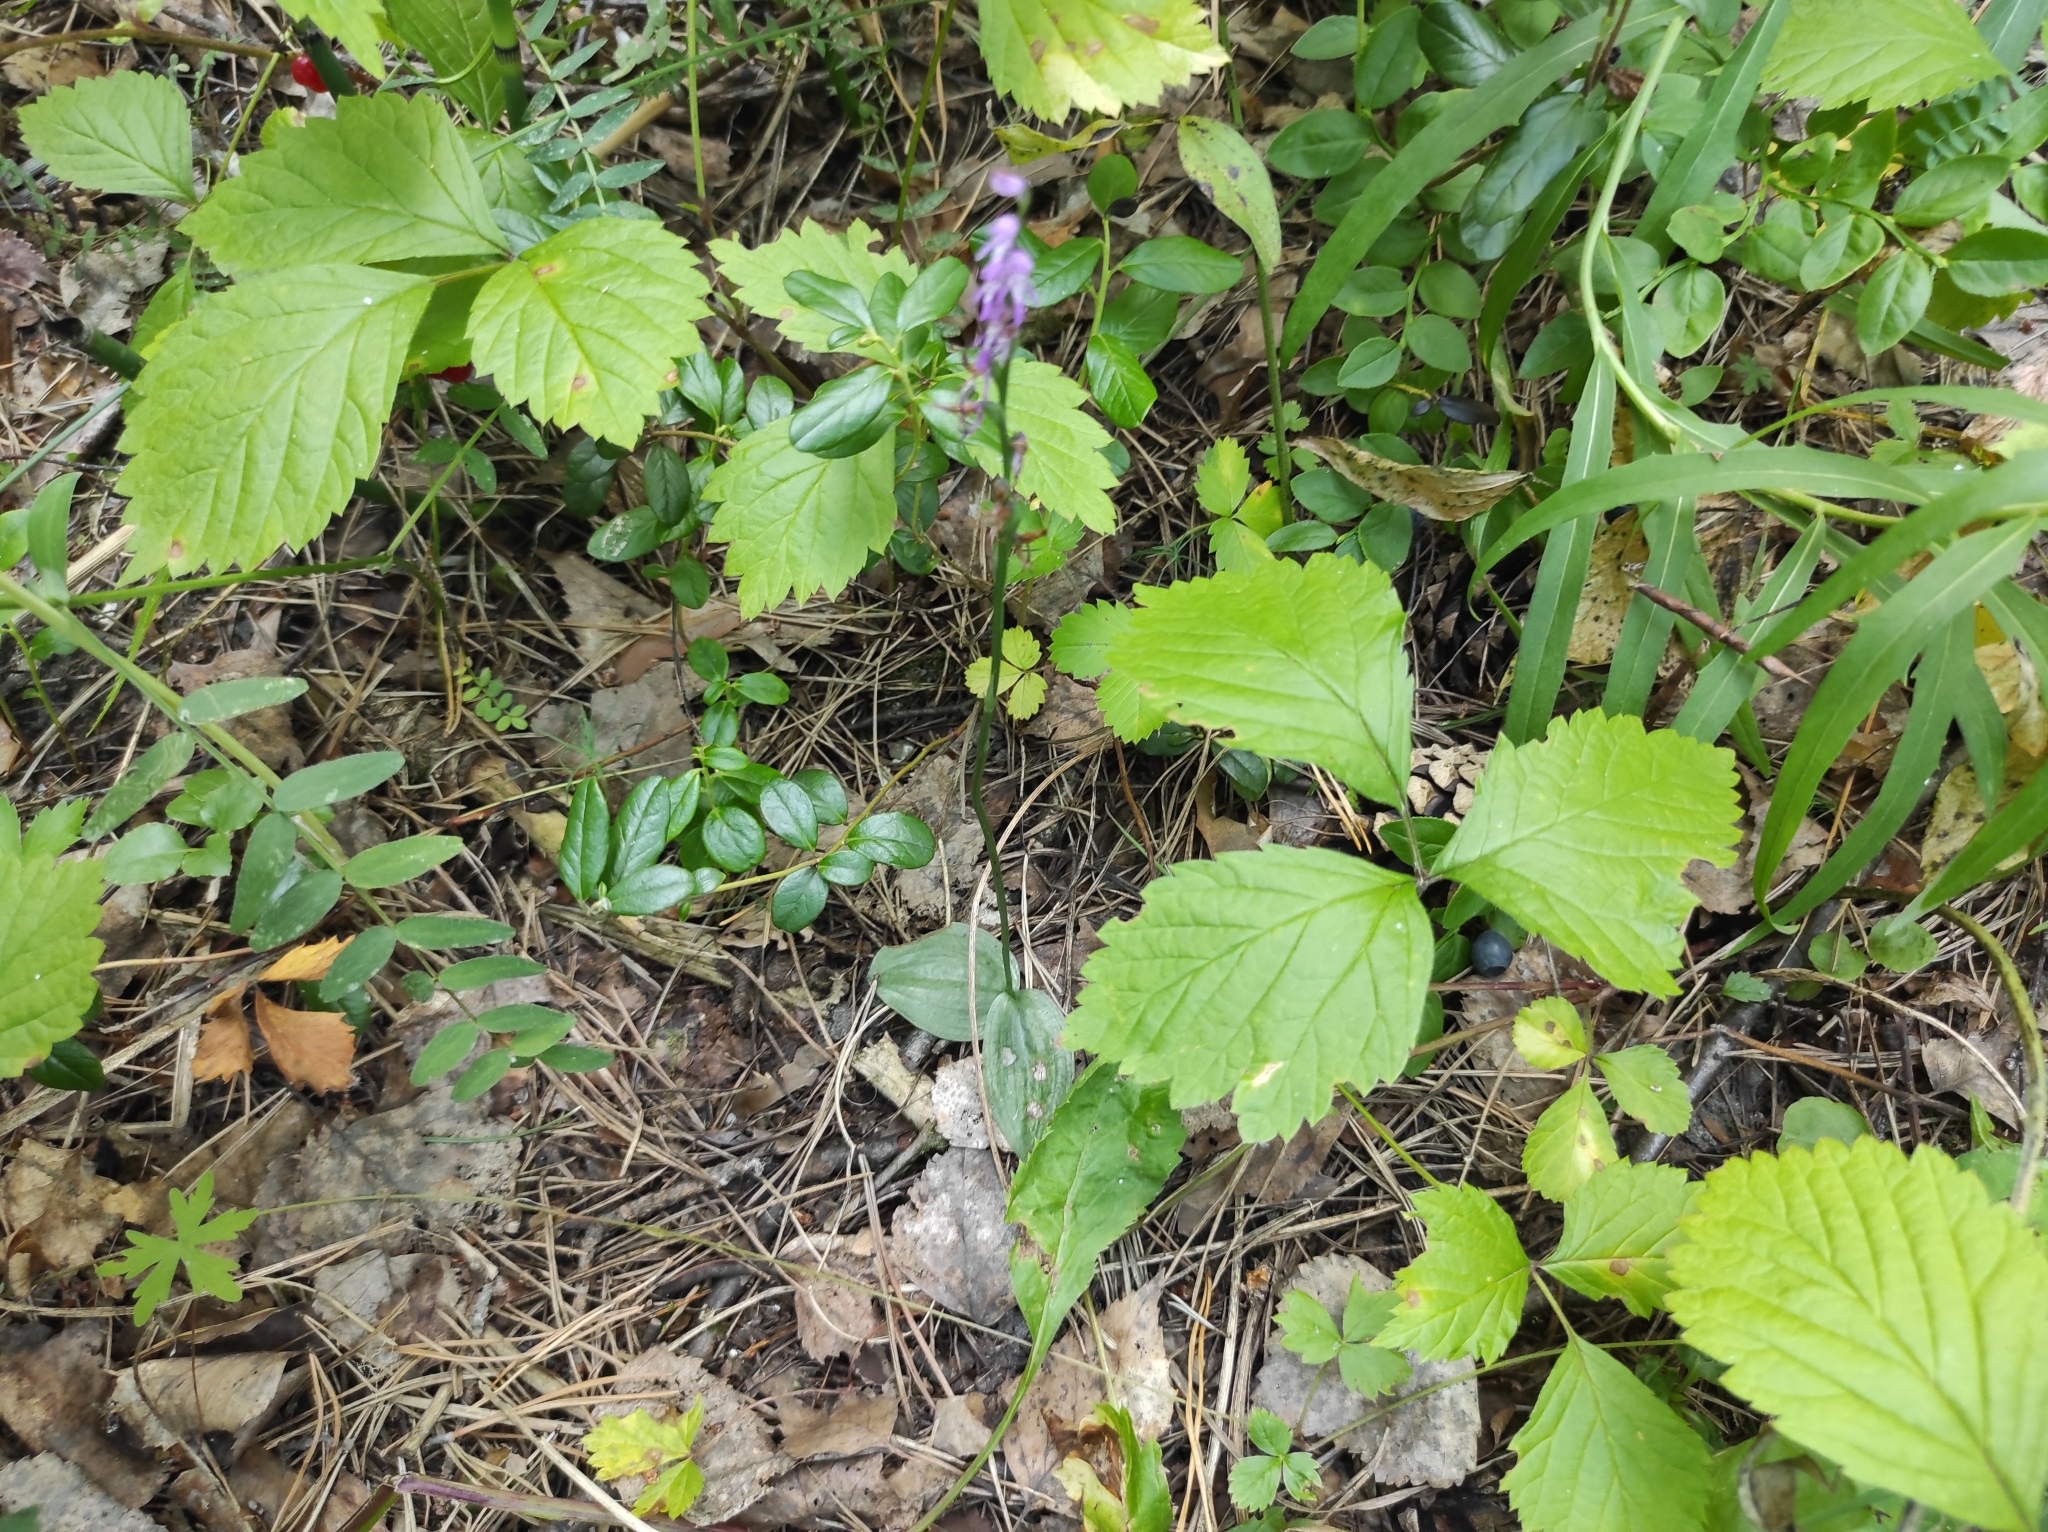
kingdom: Plantae
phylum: Tracheophyta
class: Liliopsida
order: Asparagales
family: Orchidaceae
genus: Hemipilia
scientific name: Hemipilia cucullata
